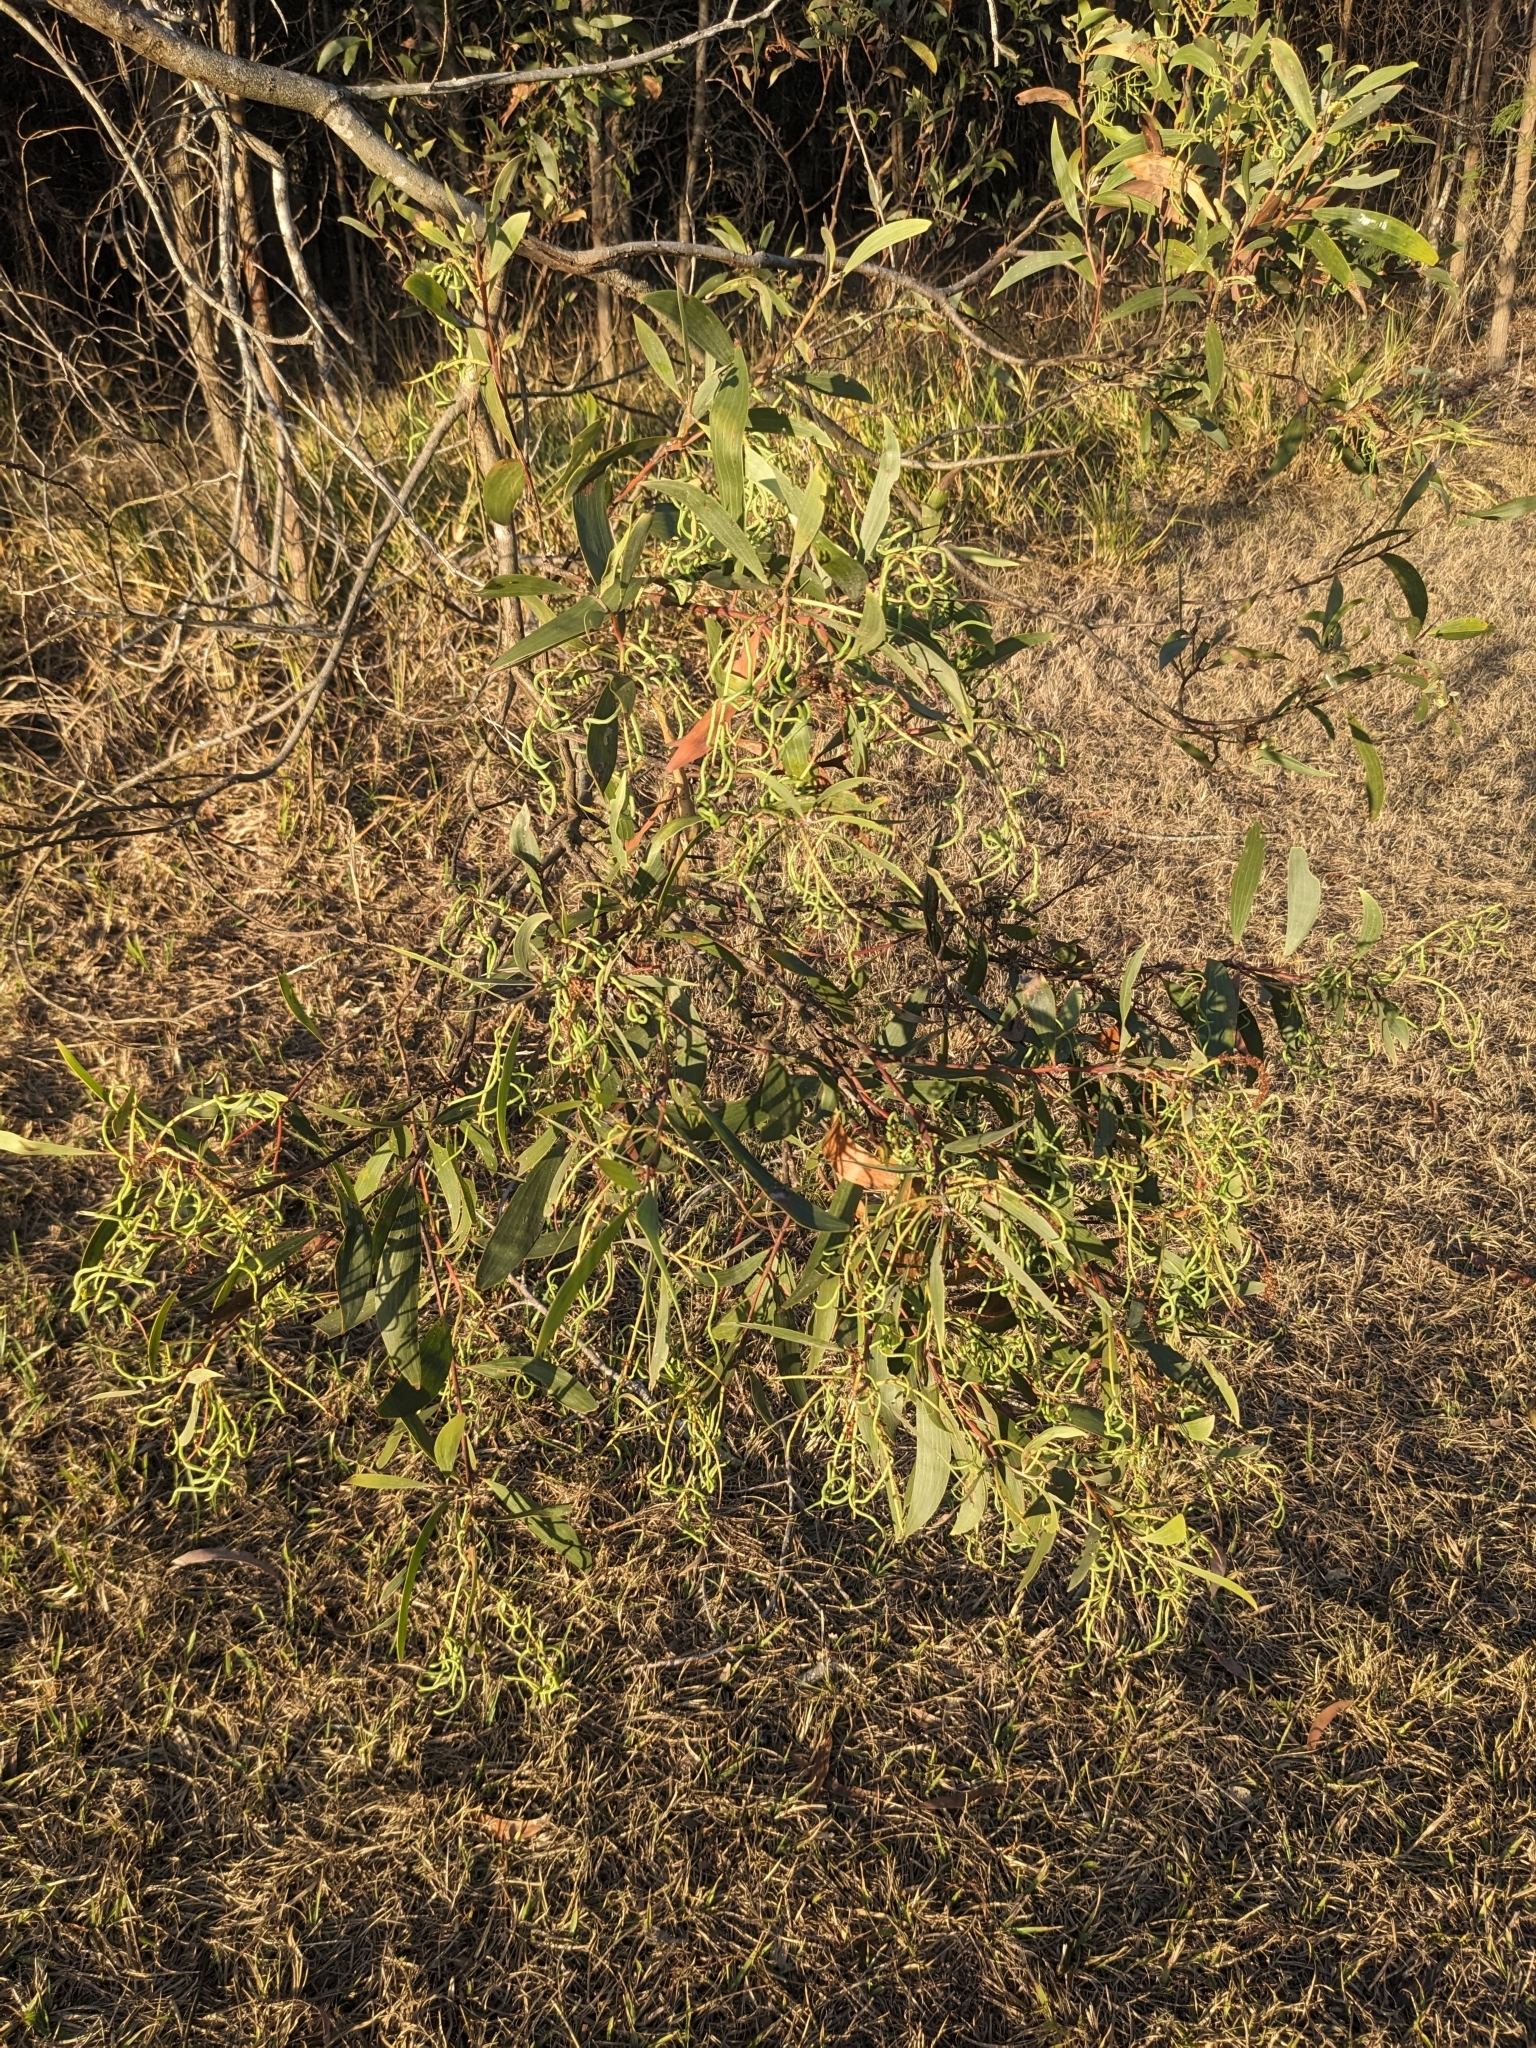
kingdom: Plantae
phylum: Tracheophyta
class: Magnoliopsida
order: Fabales
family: Fabaceae
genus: Acacia
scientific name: Acacia leiocalyx
